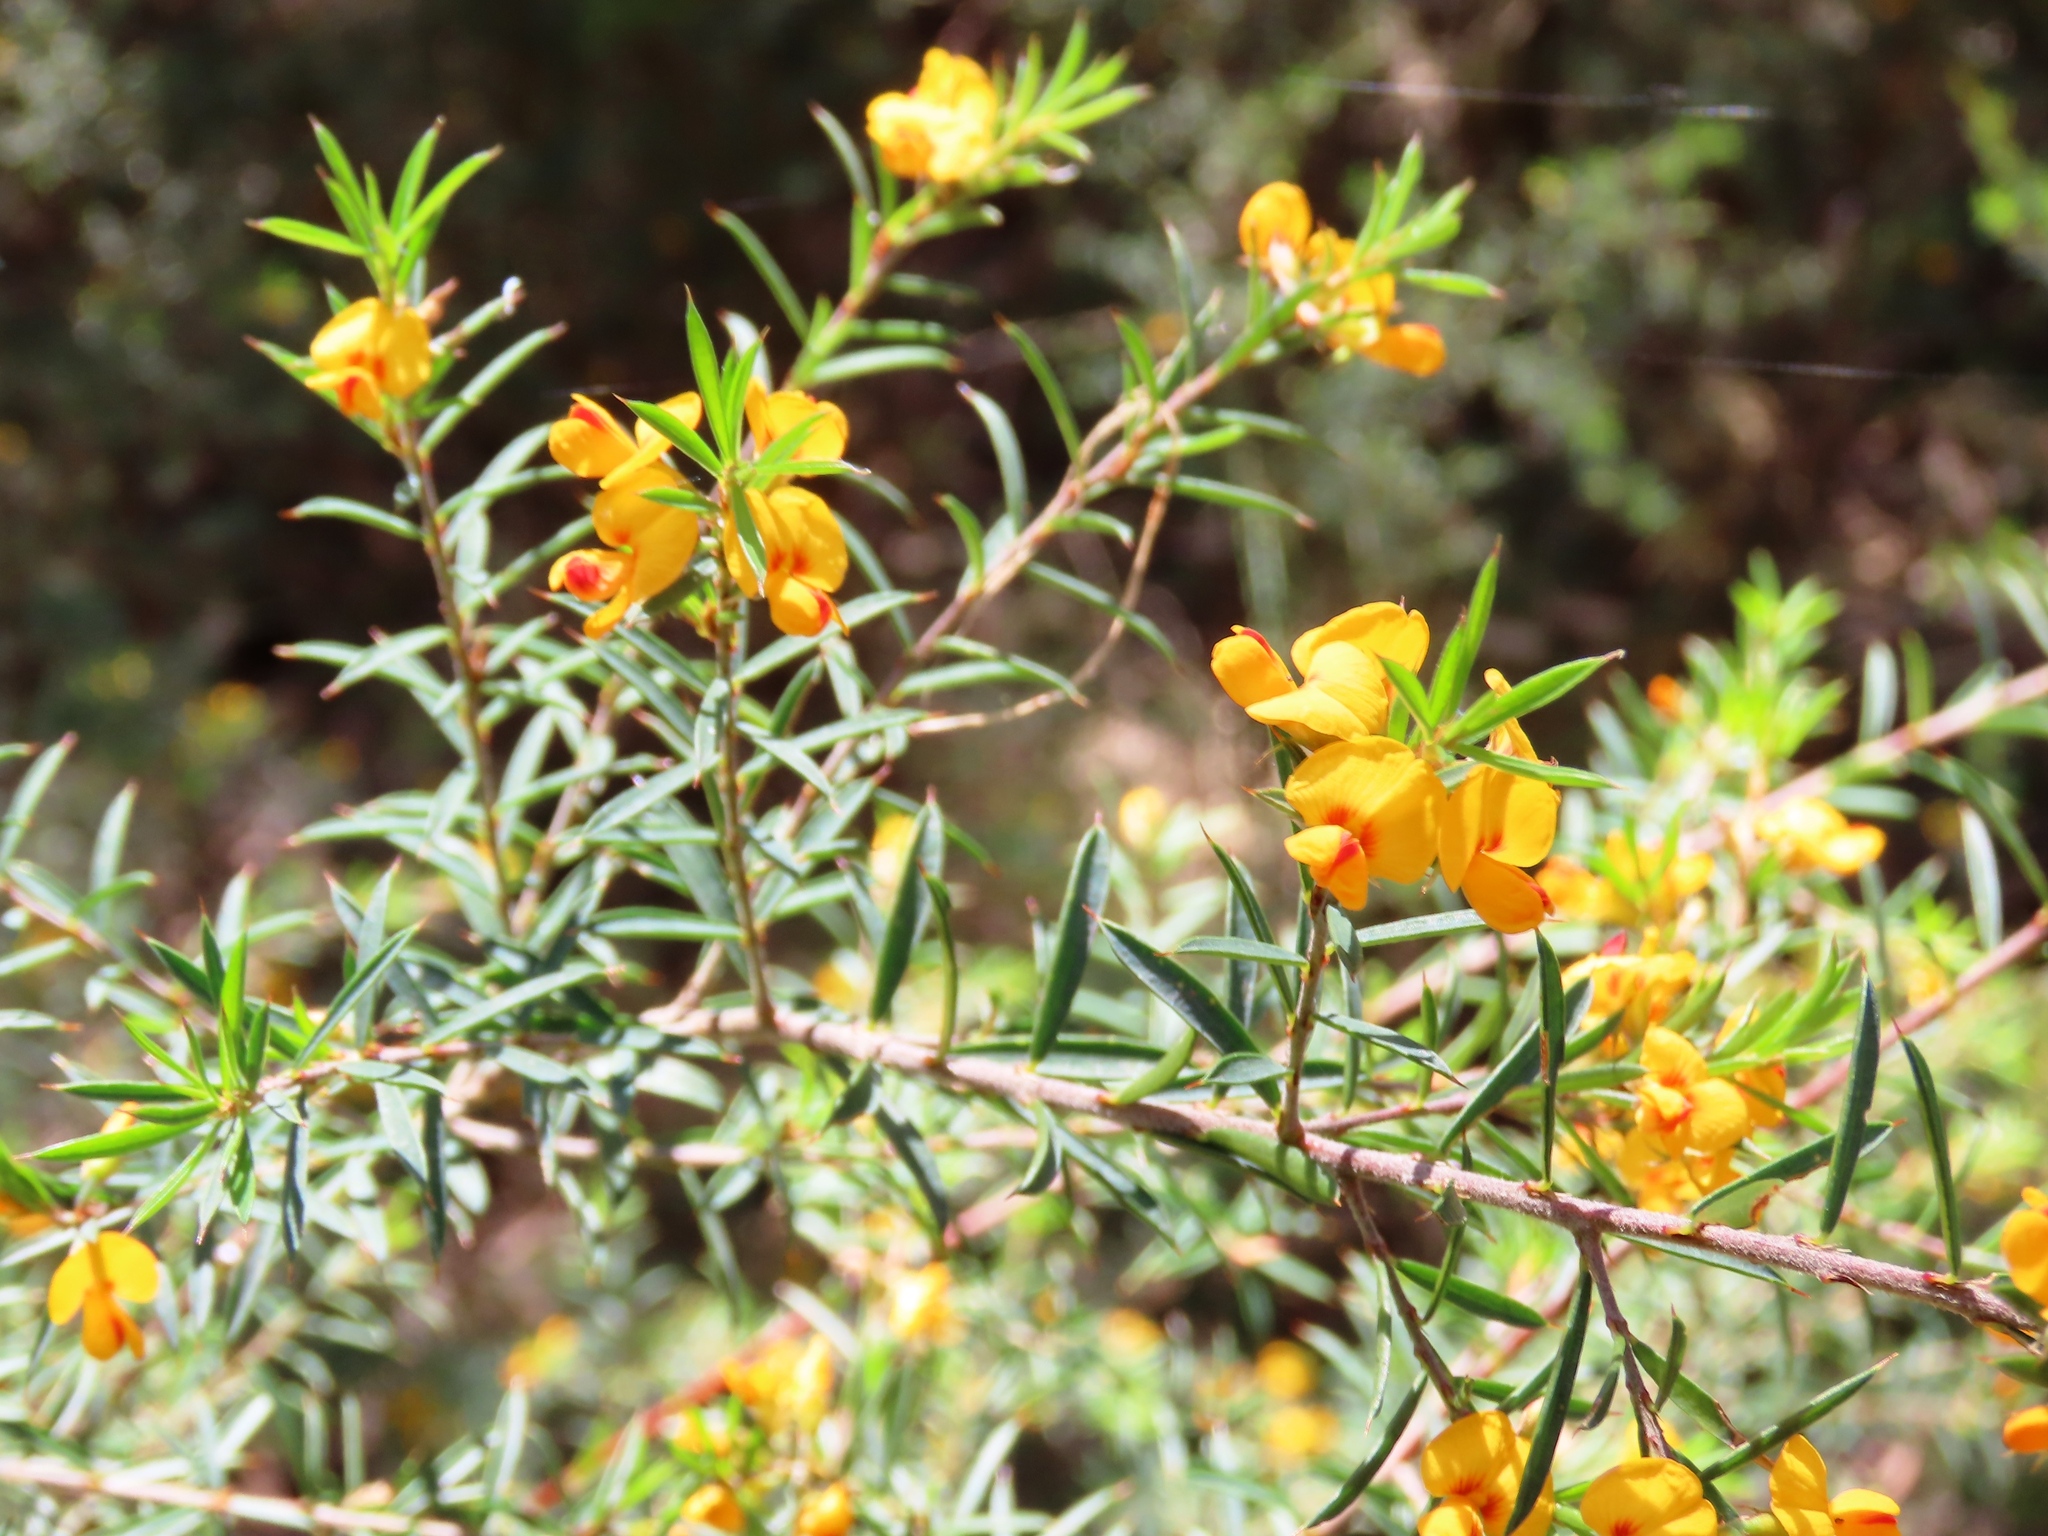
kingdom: Plantae
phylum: Tracheophyta
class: Magnoliopsida
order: Fabales
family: Fabaceae
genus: Pultenaea
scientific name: Pultenaea juniperina
